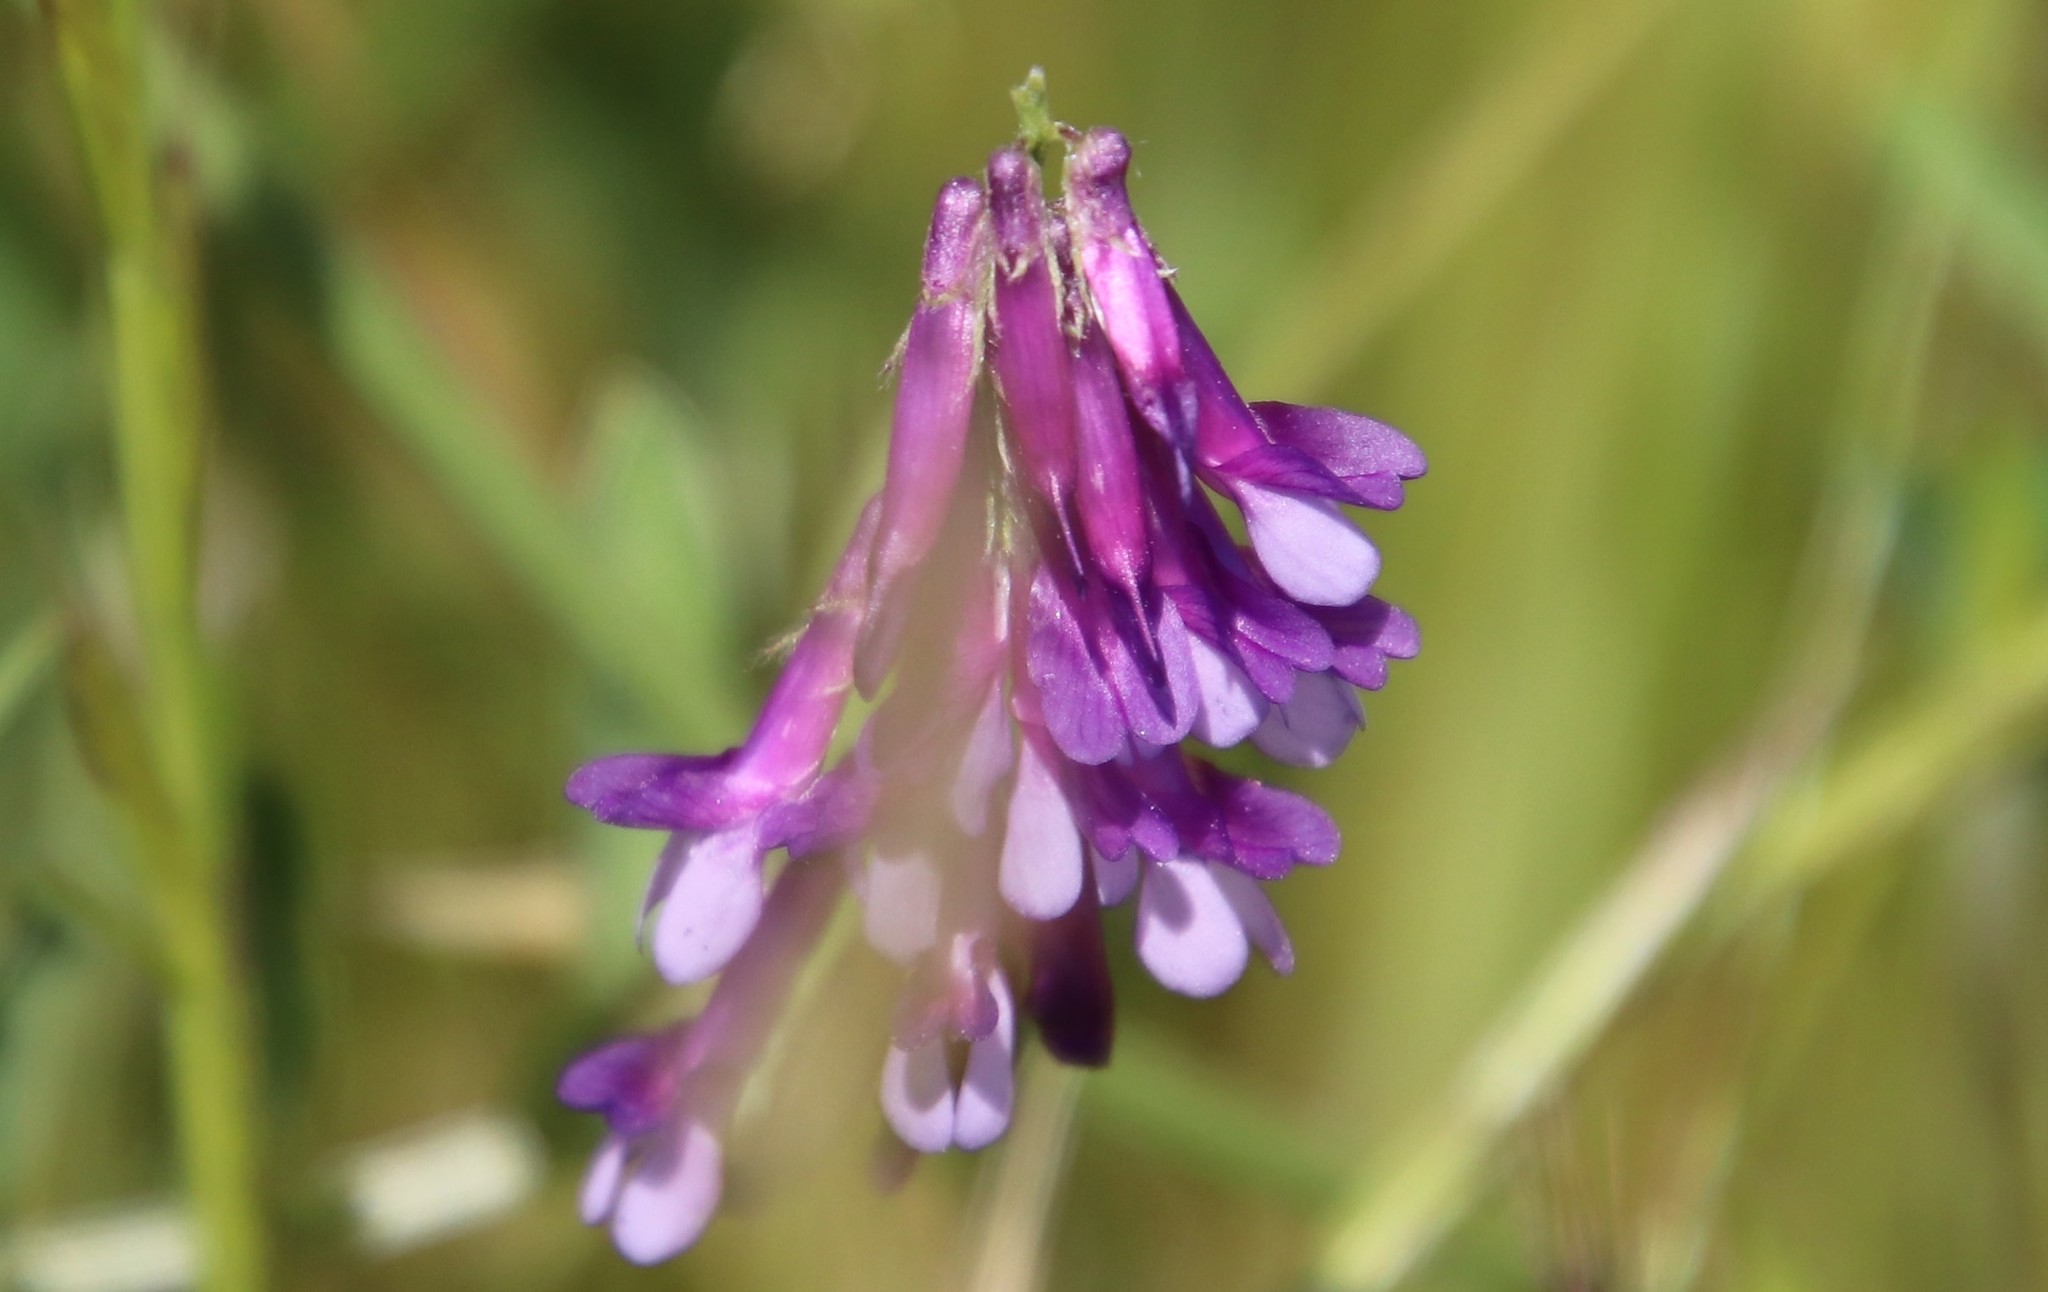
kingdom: Plantae
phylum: Tracheophyta
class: Magnoliopsida
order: Fabales
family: Fabaceae
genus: Vicia
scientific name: Vicia villosa
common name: Fodder vetch
